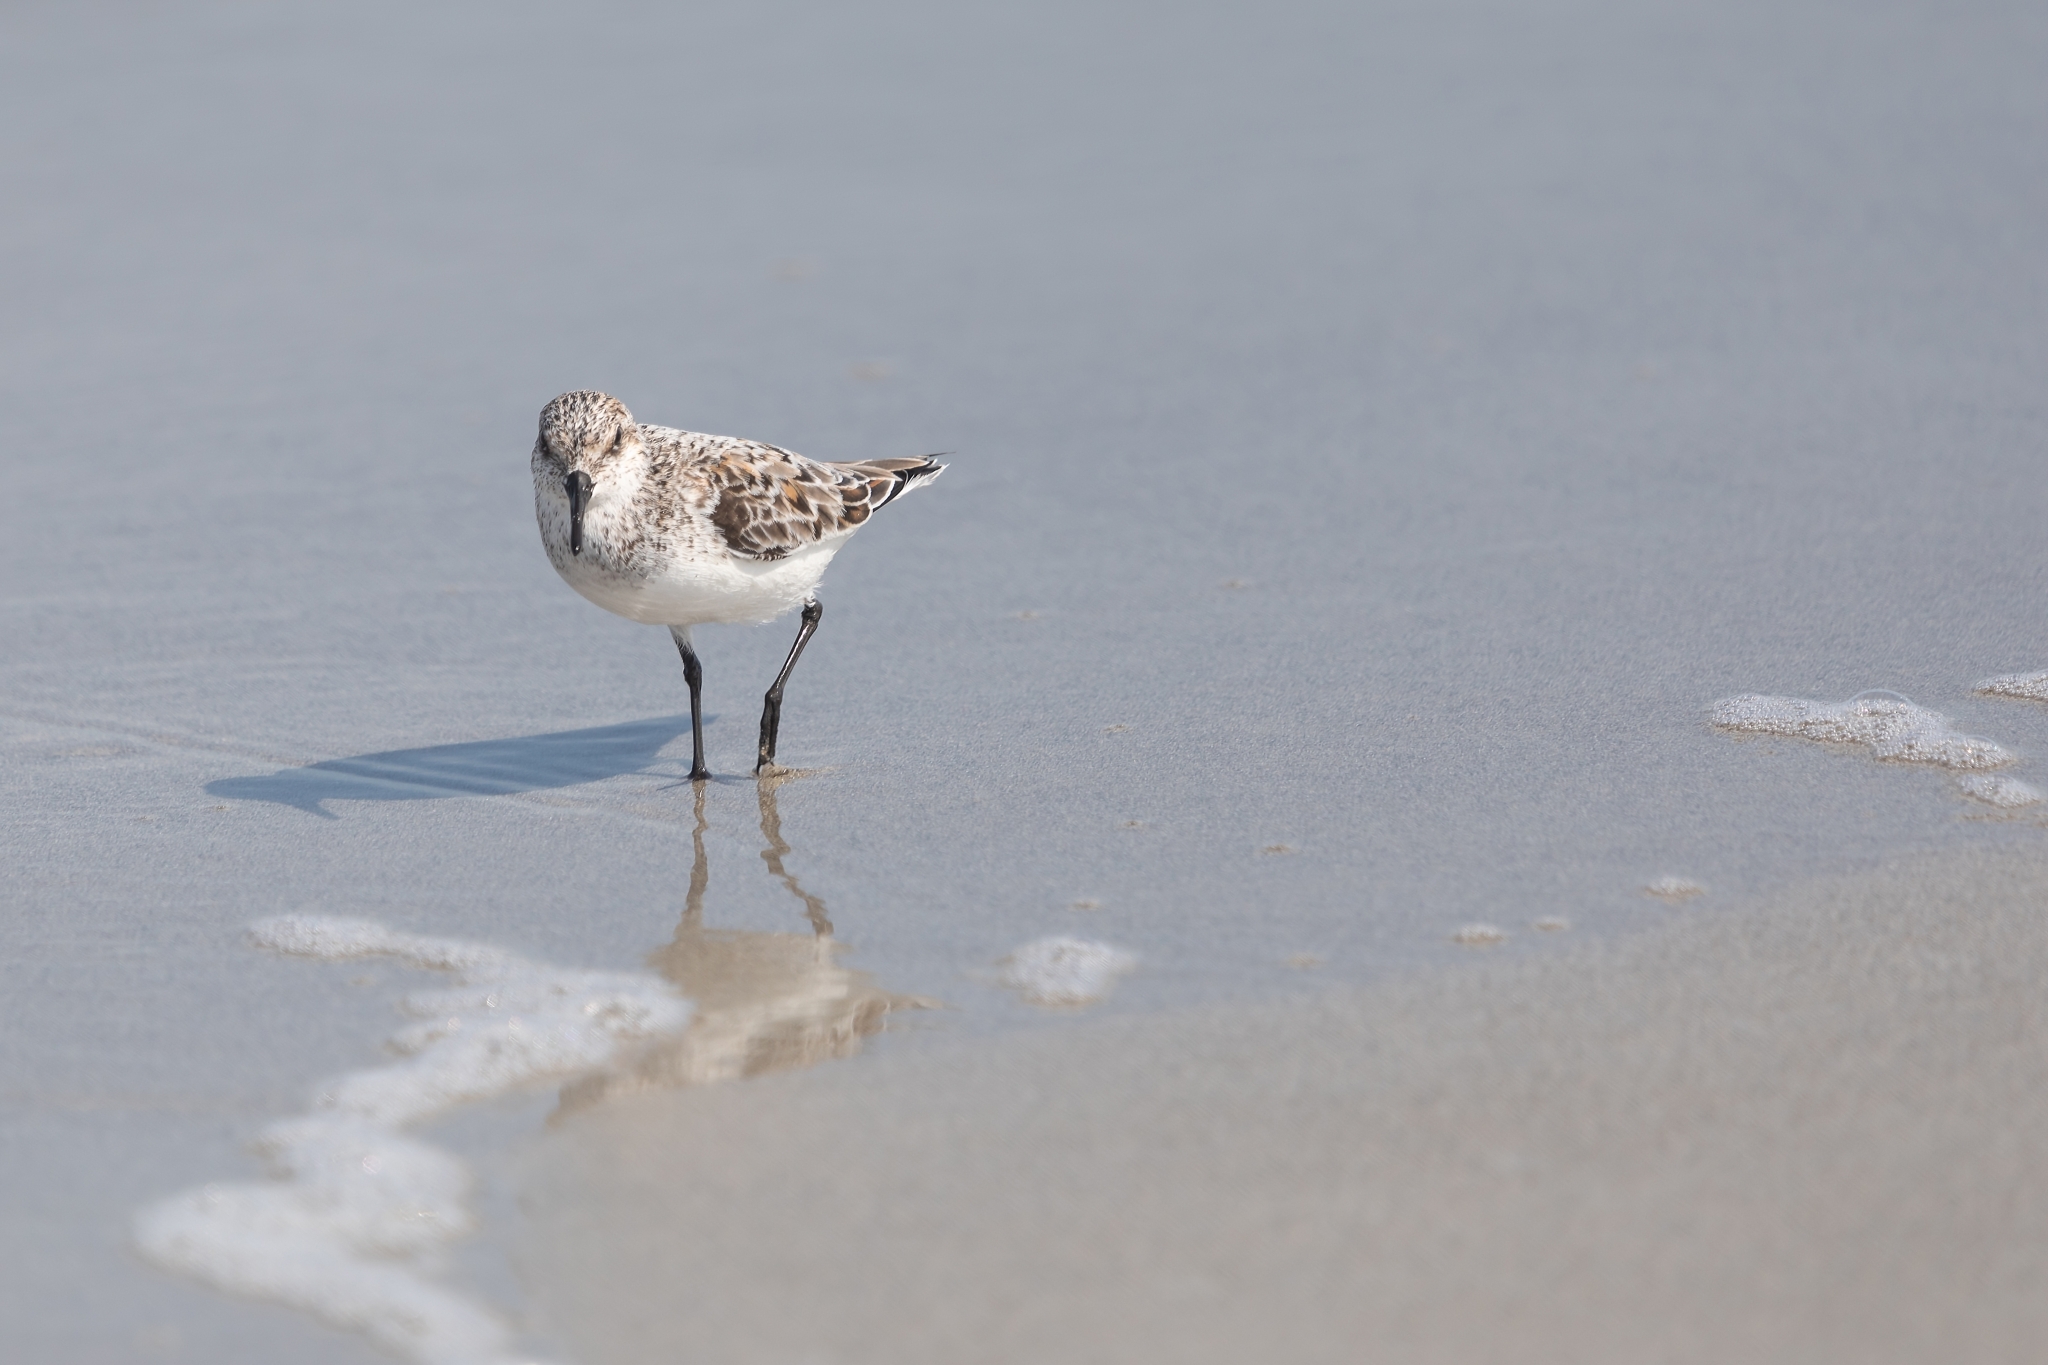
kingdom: Animalia
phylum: Chordata
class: Aves
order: Charadriiformes
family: Scolopacidae
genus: Calidris
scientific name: Calidris alba
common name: Sanderling
